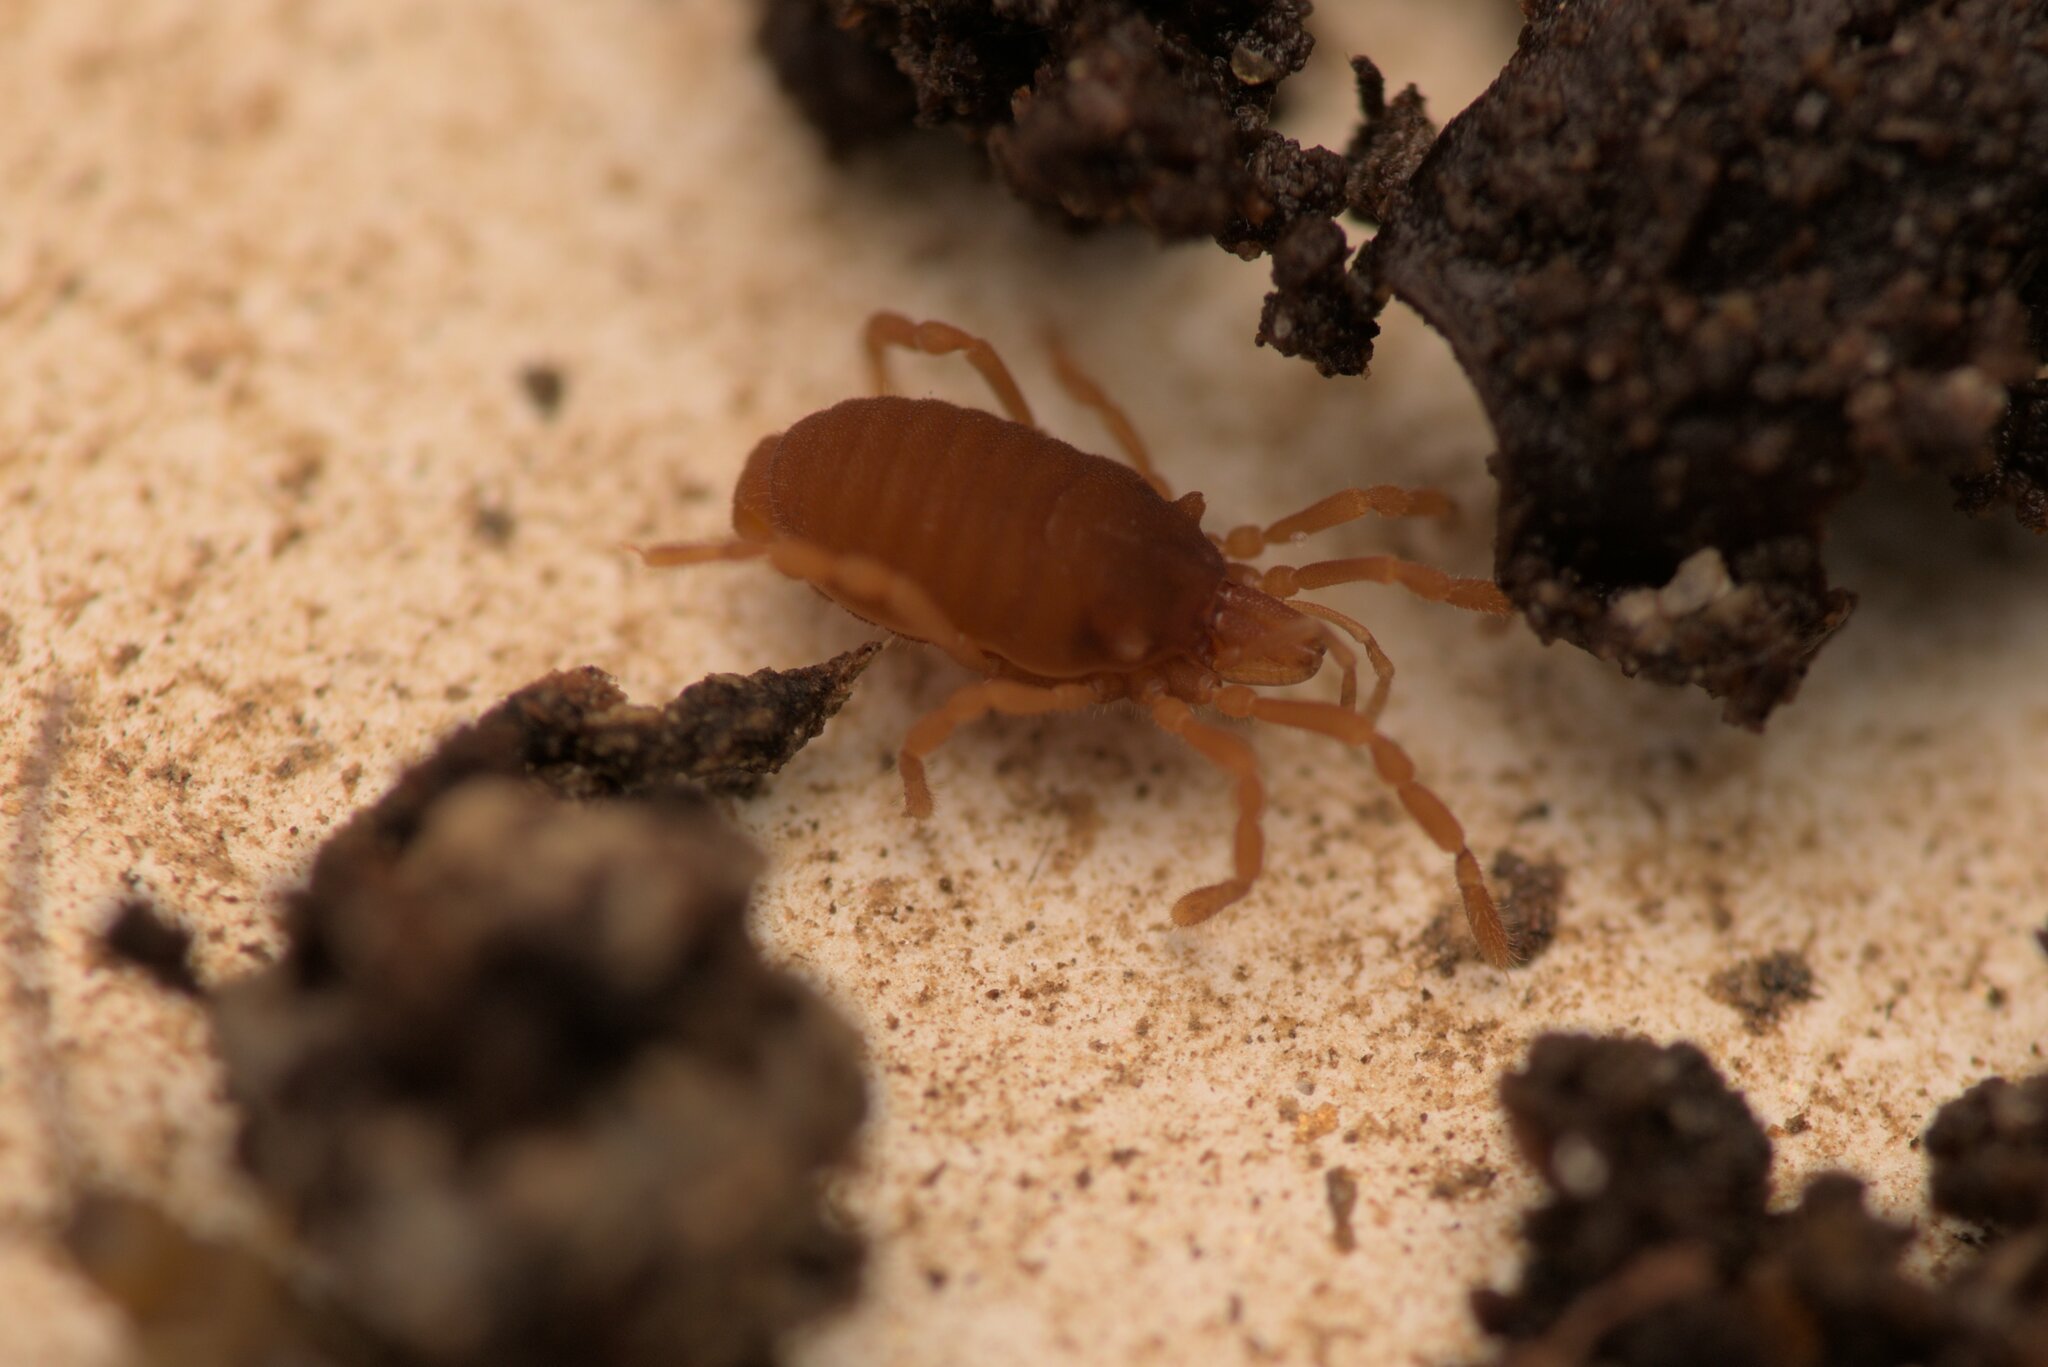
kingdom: Animalia
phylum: Arthropoda
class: Arachnida
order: Opiliones
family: Sironidae
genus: Siro
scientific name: Siro rubens
